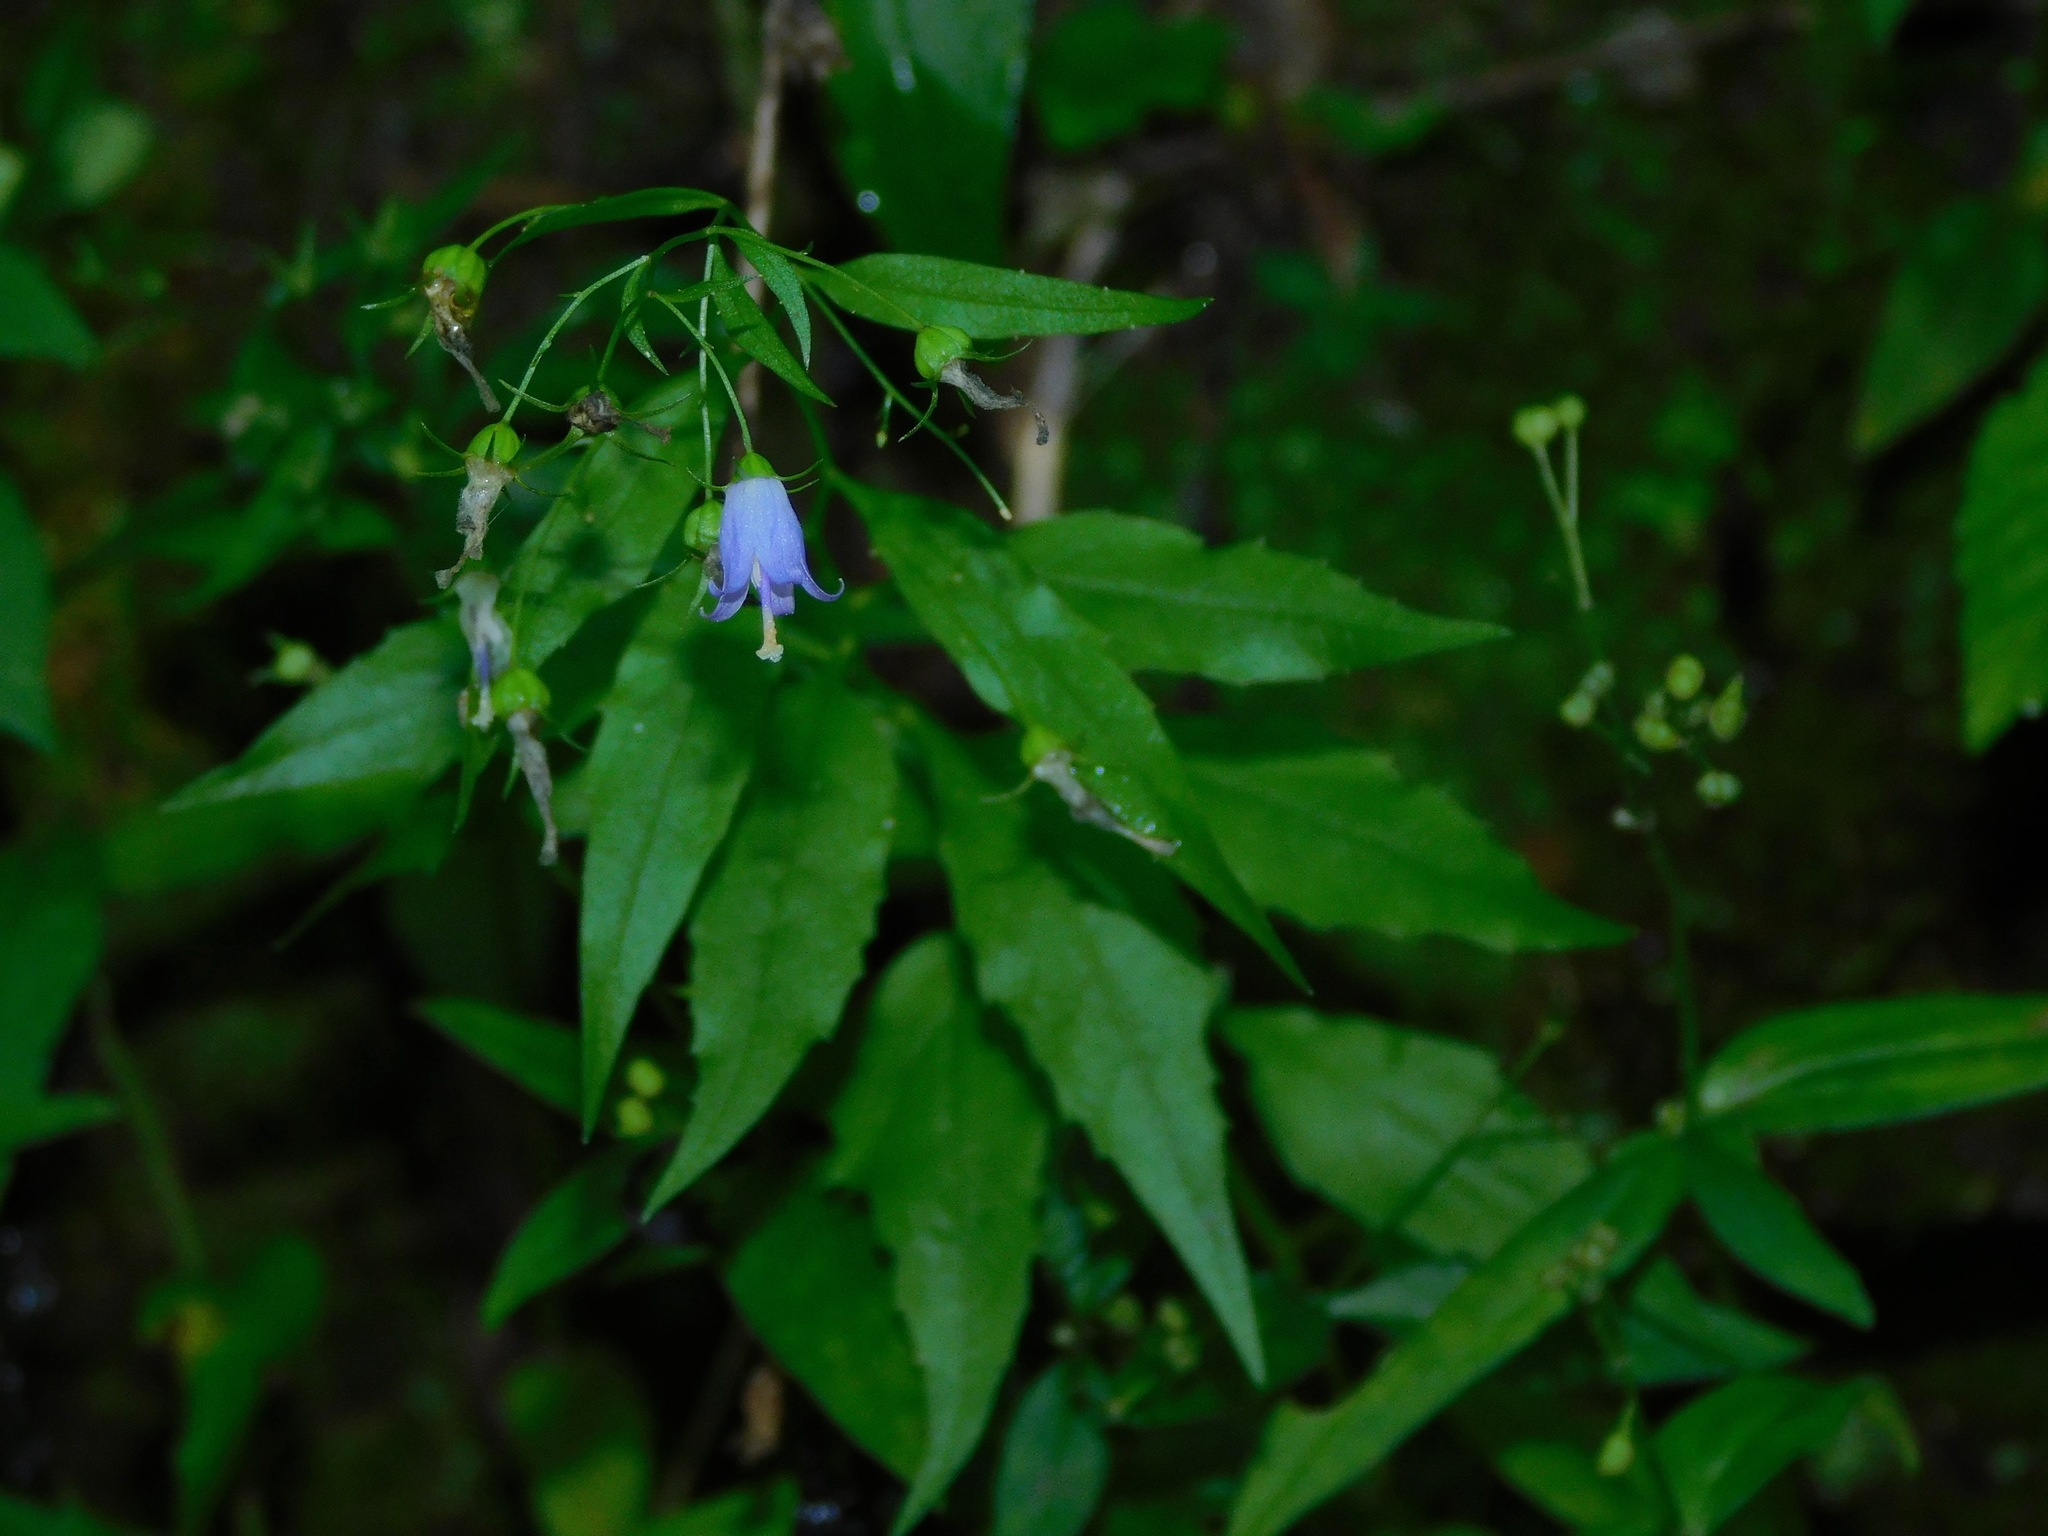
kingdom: Plantae
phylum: Tracheophyta
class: Magnoliopsida
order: Asterales
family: Campanulaceae
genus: Campanula
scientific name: Campanula divaricata
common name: Appalachian bellflower
